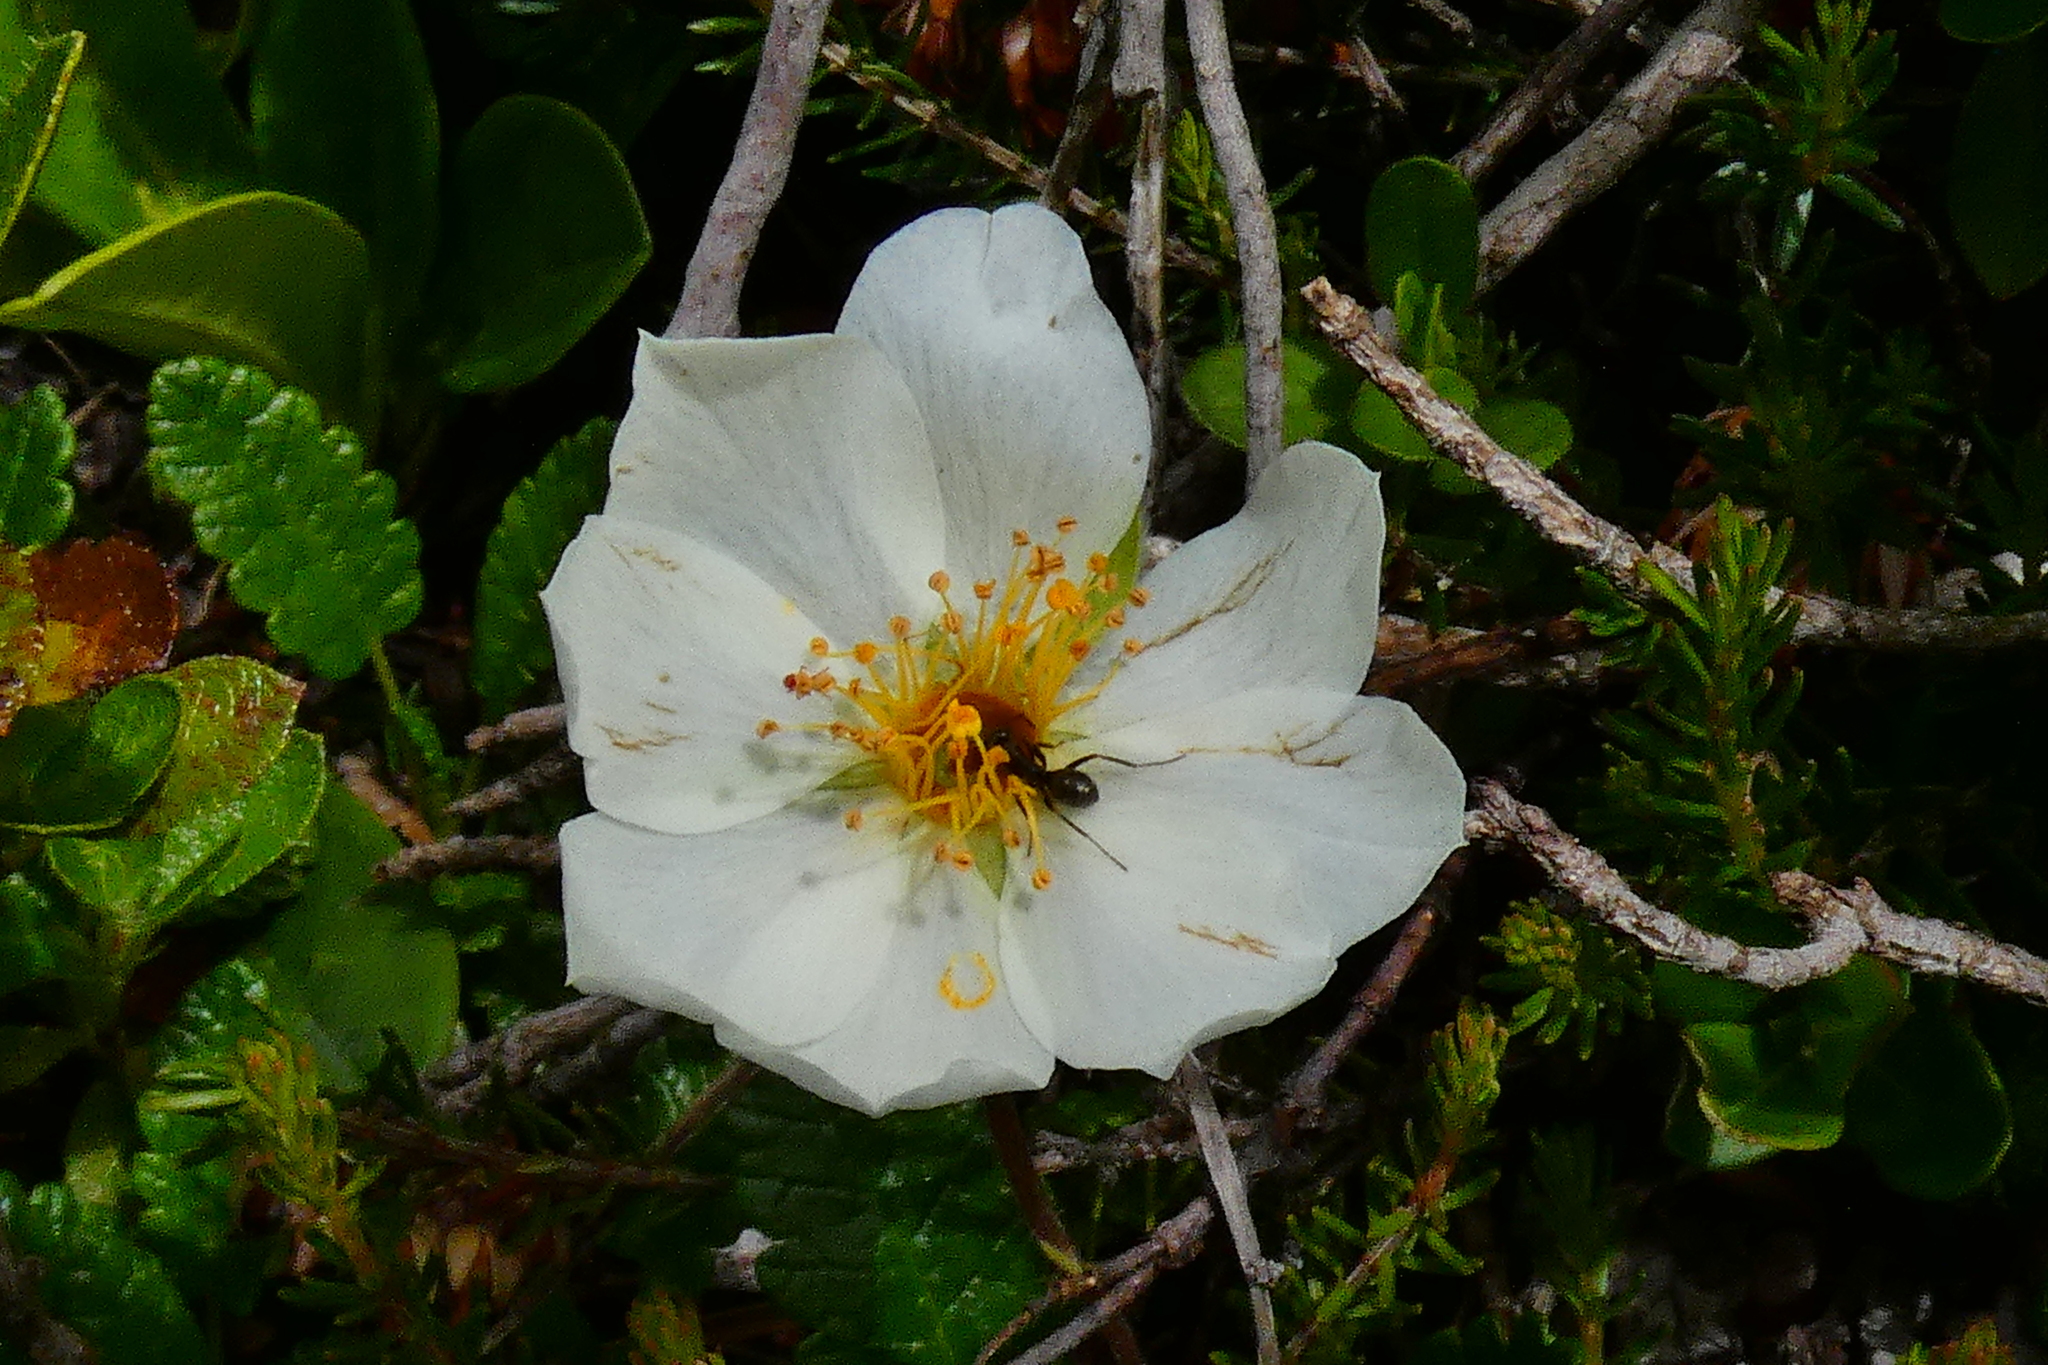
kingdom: Plantae
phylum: Tracheophyta
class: Magnoliopsida
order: Rosales
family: Rosaceae
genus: Dryas
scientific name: Dryas octopetala
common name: Eight-petal mountain-avens
